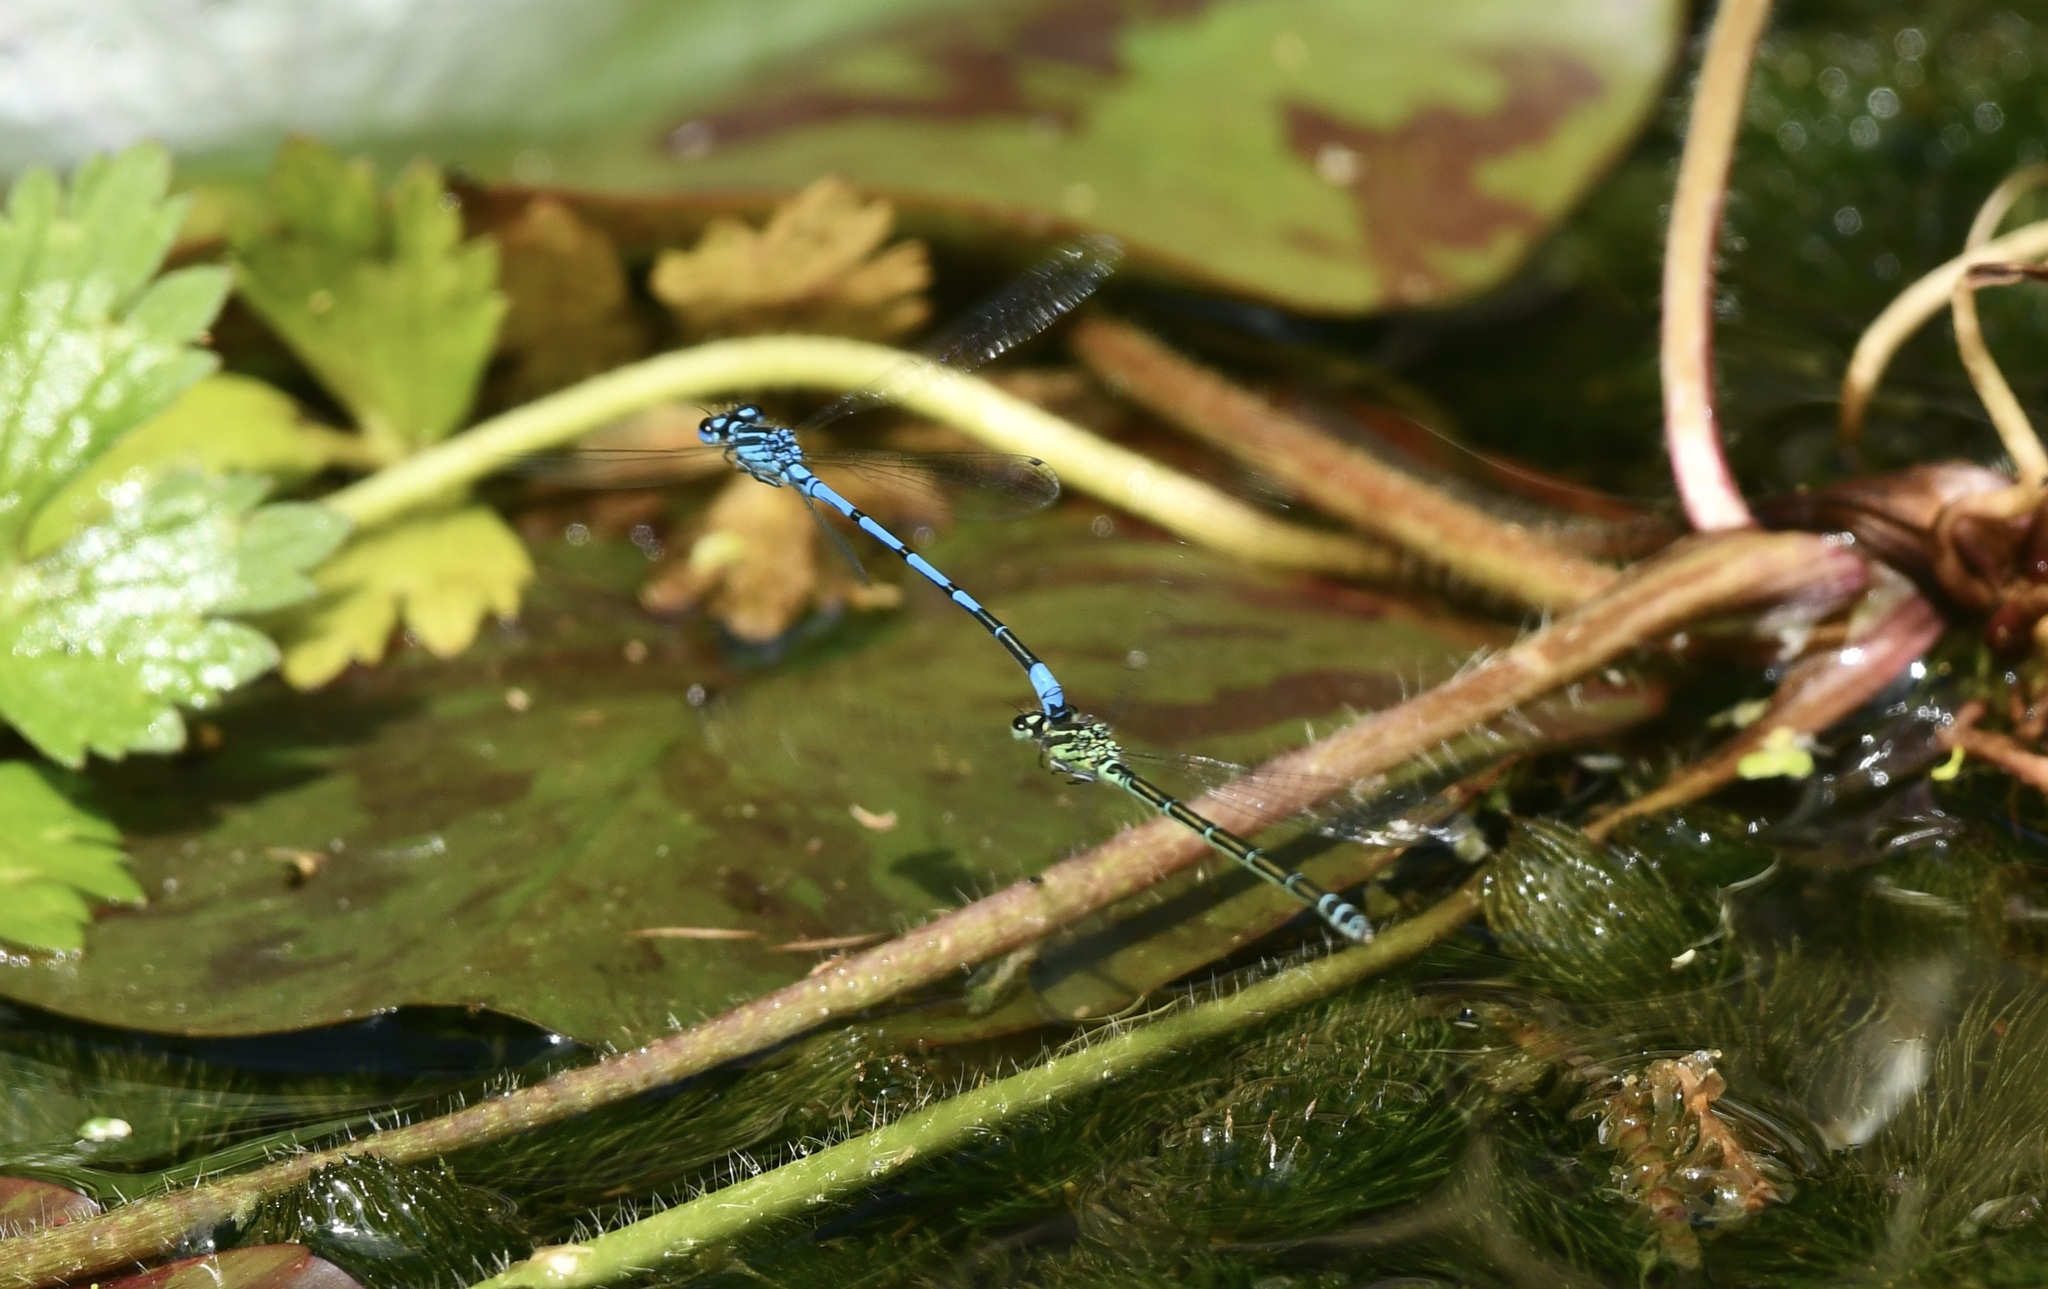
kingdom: Animalia
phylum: Arthropoda
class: Insecta
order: Odonata
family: Coenagrionidae
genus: Coenagrion
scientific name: Coenagrion puella
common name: Azure damselfly
